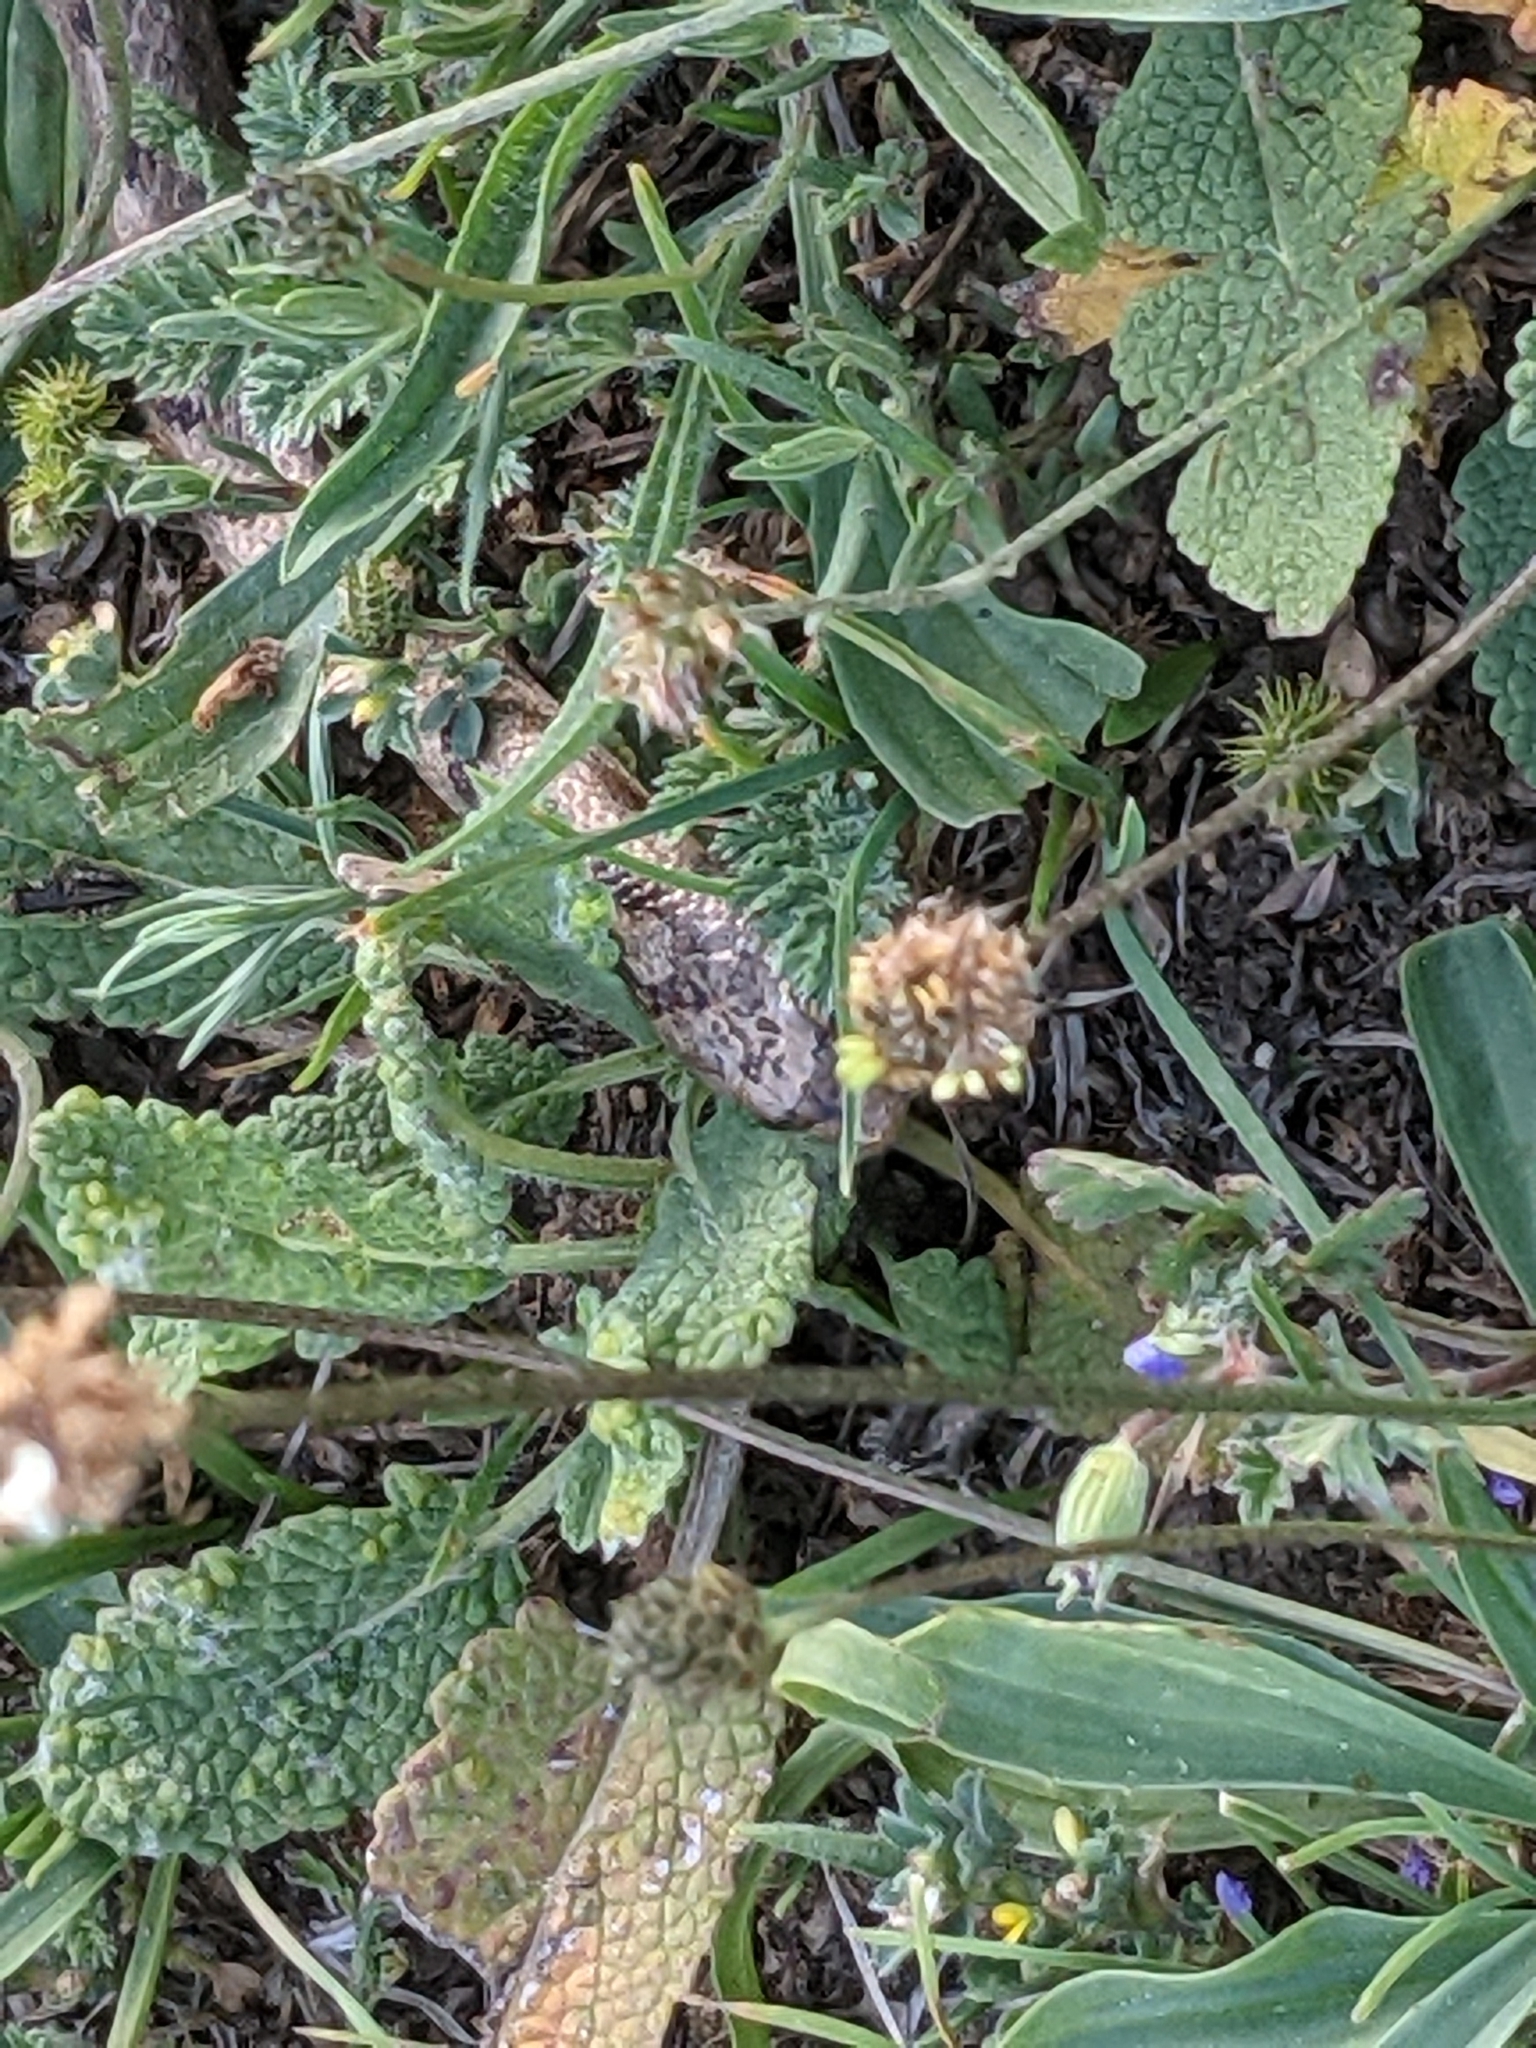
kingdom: Animalia
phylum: Chordata
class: Squamata
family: Colubridae
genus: Coronella
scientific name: Coronella girondica
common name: Southern smooth snake
